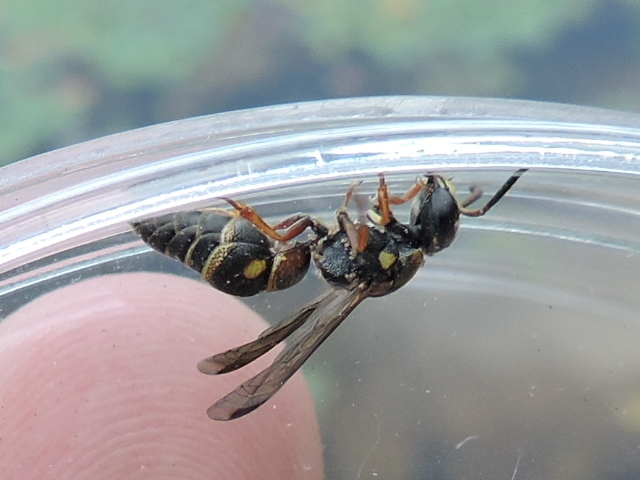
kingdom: Animalia
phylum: Arthropoda
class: Insecta
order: Hymenoptera
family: Eumenidae
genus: Rhynchalastor
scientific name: Rhynchalastor fundatiformis
